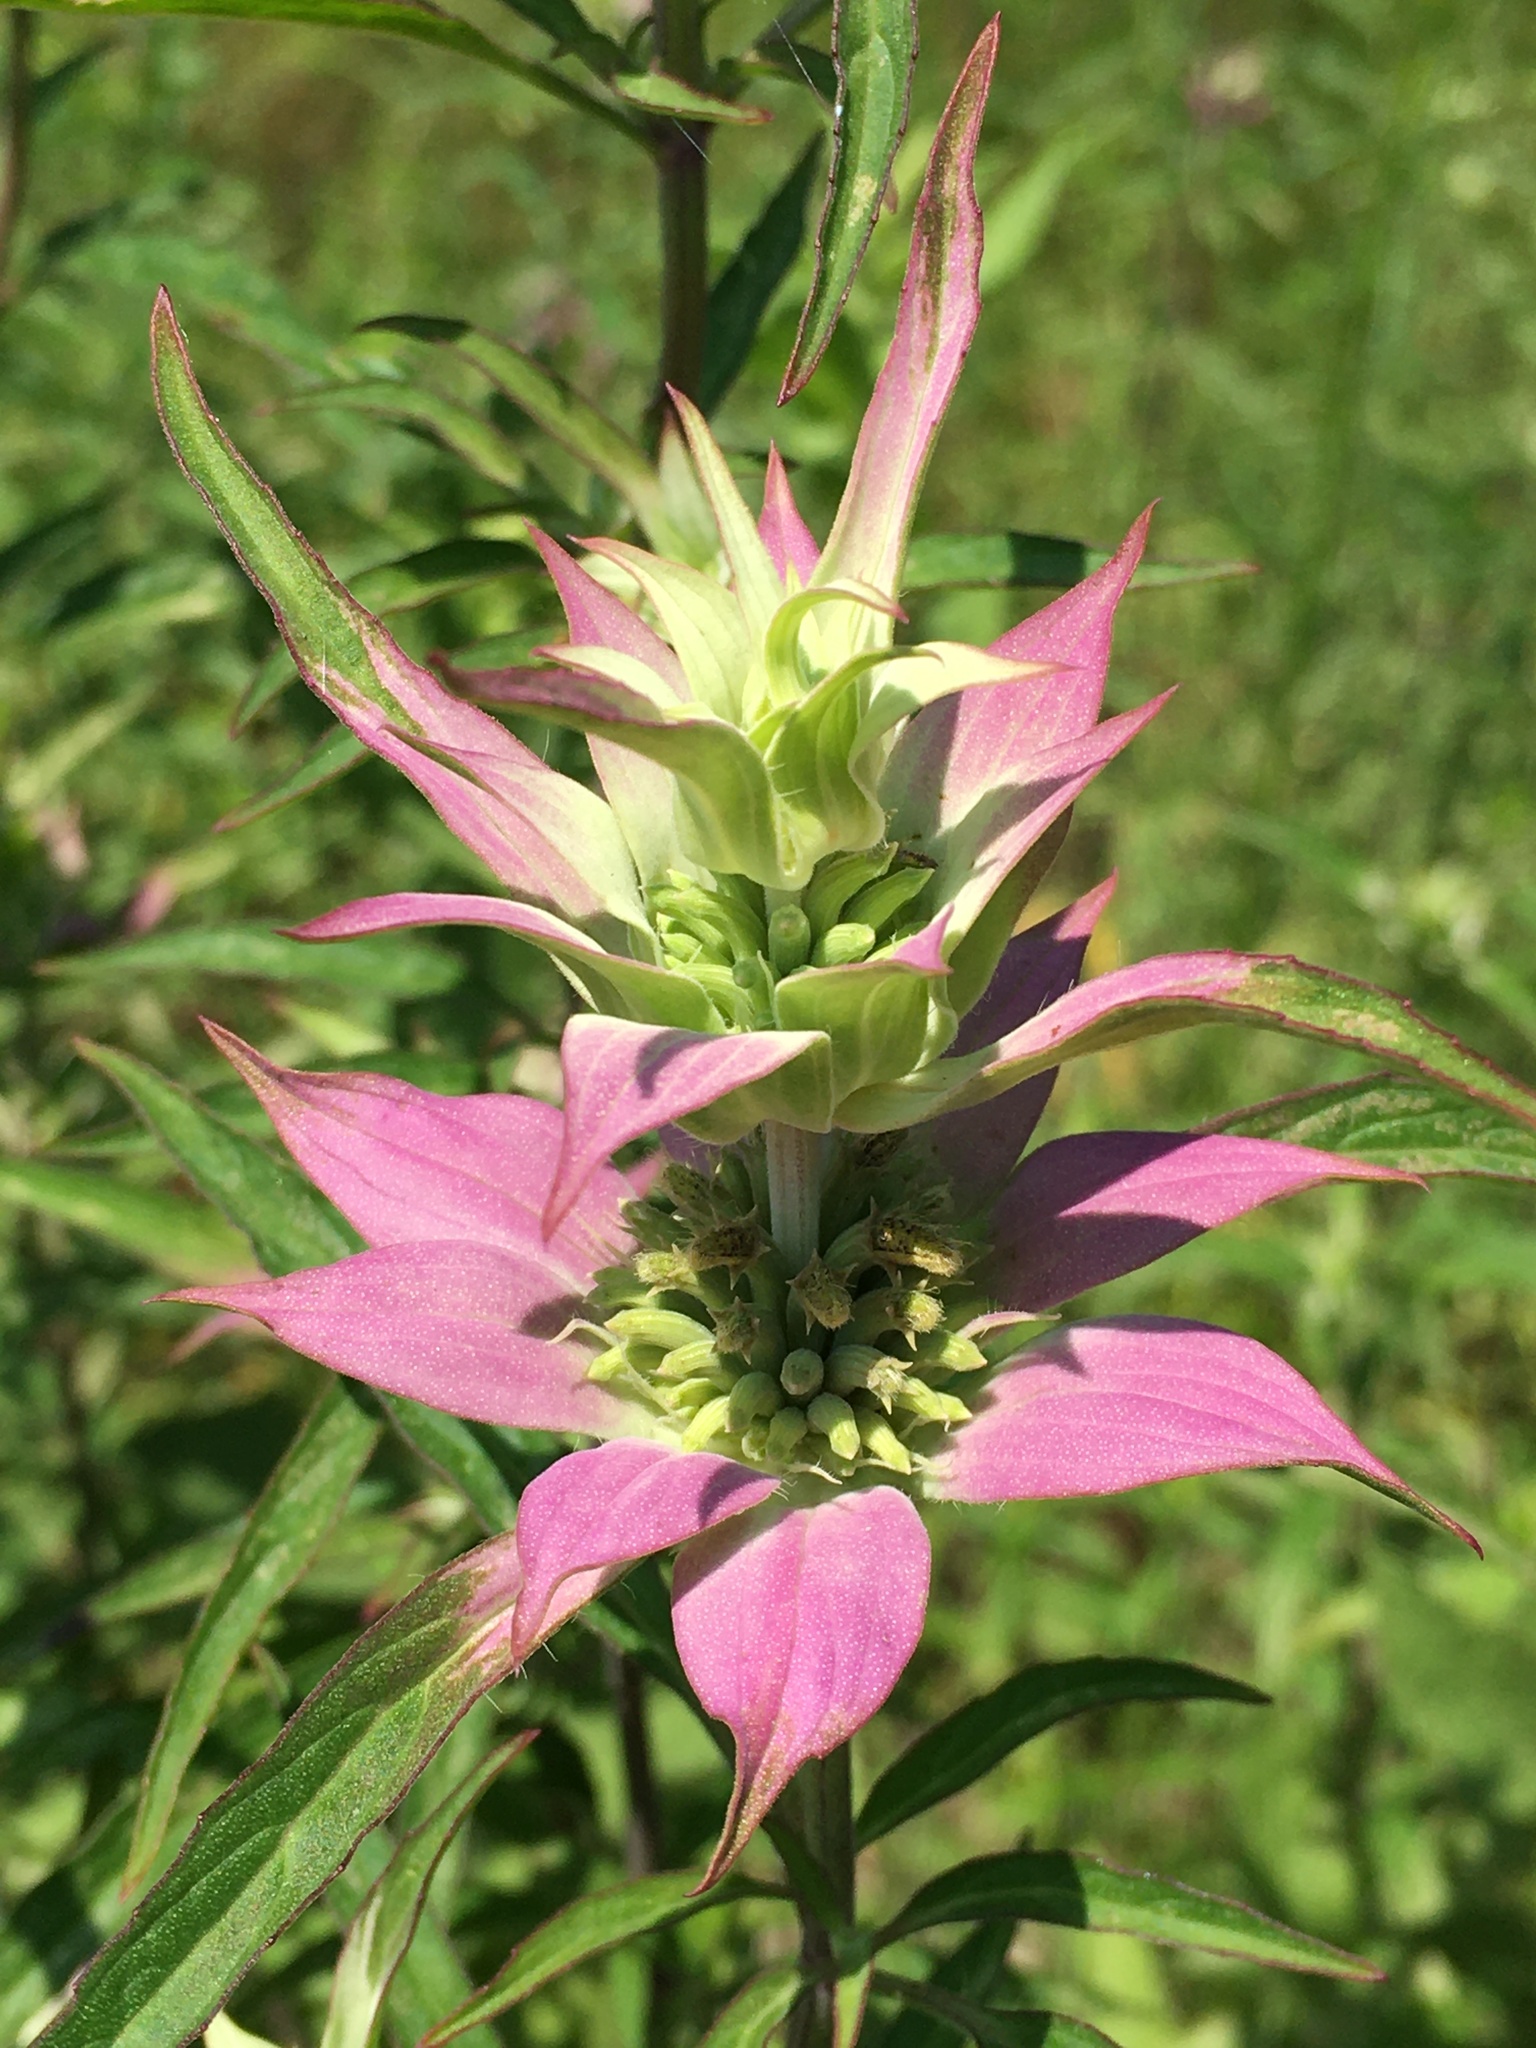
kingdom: Plantae
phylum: Tracheophyta
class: Magnoliopsida
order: Lamiales
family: Lamiaceae
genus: Monarda
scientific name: Monarda punctata
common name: Dotted monarda
